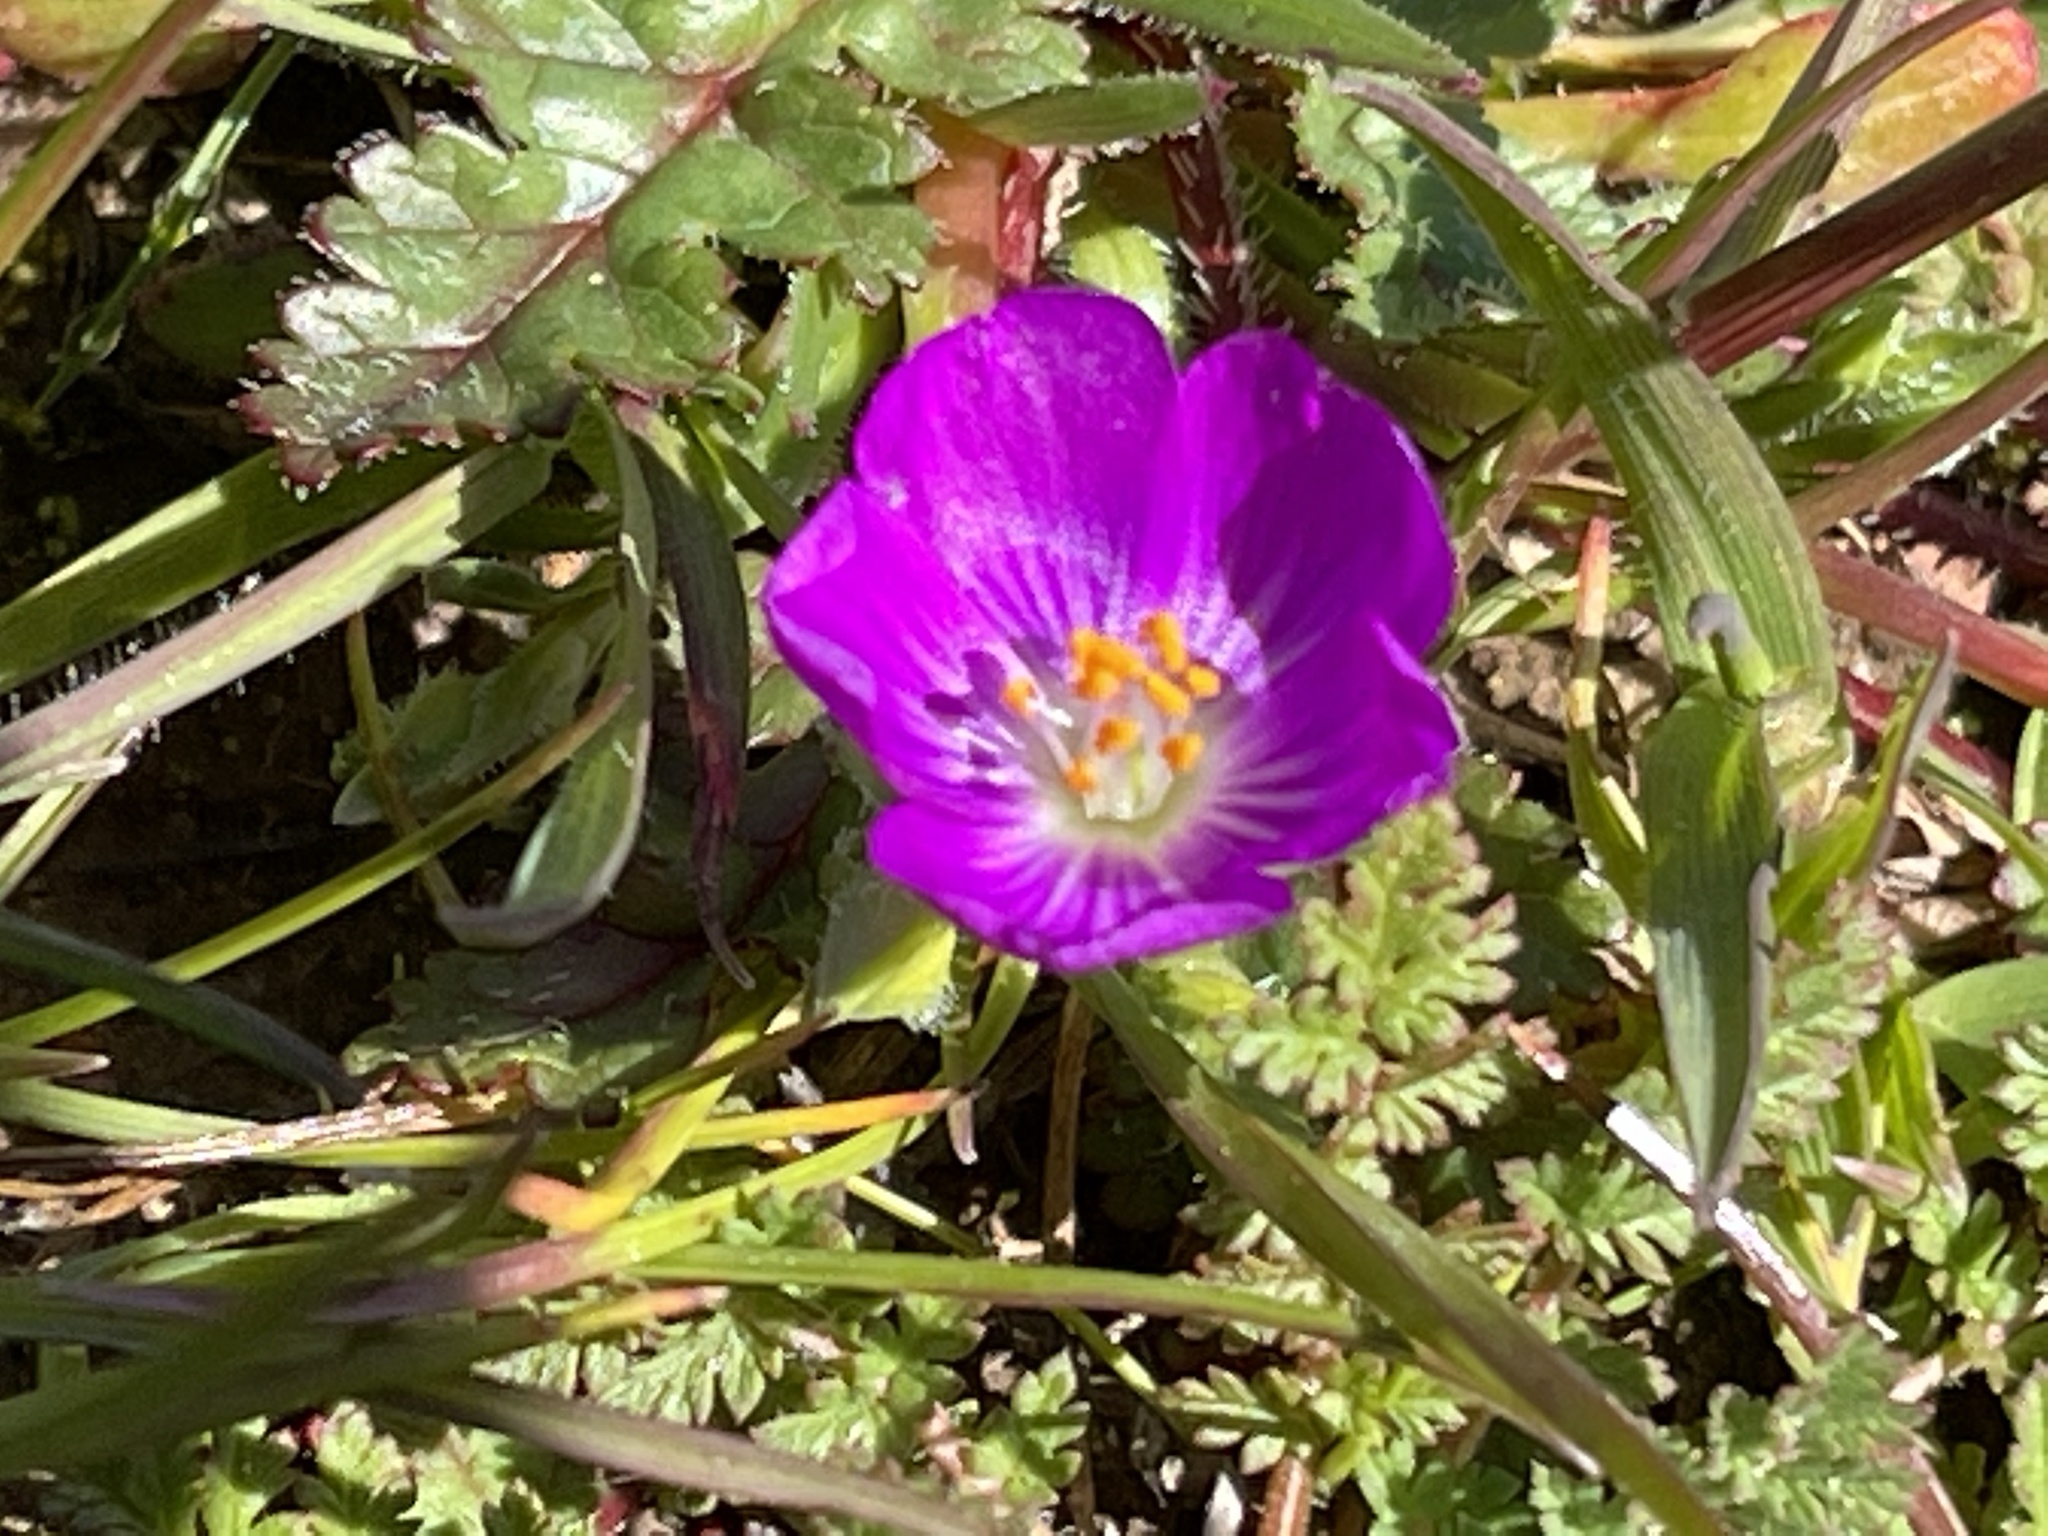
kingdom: Plantae
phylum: Tracheophyta
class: Magnoliopsida
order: Caryophyllales
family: Montiaceae
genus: Calandrinia
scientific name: Calandrinia menziesii
